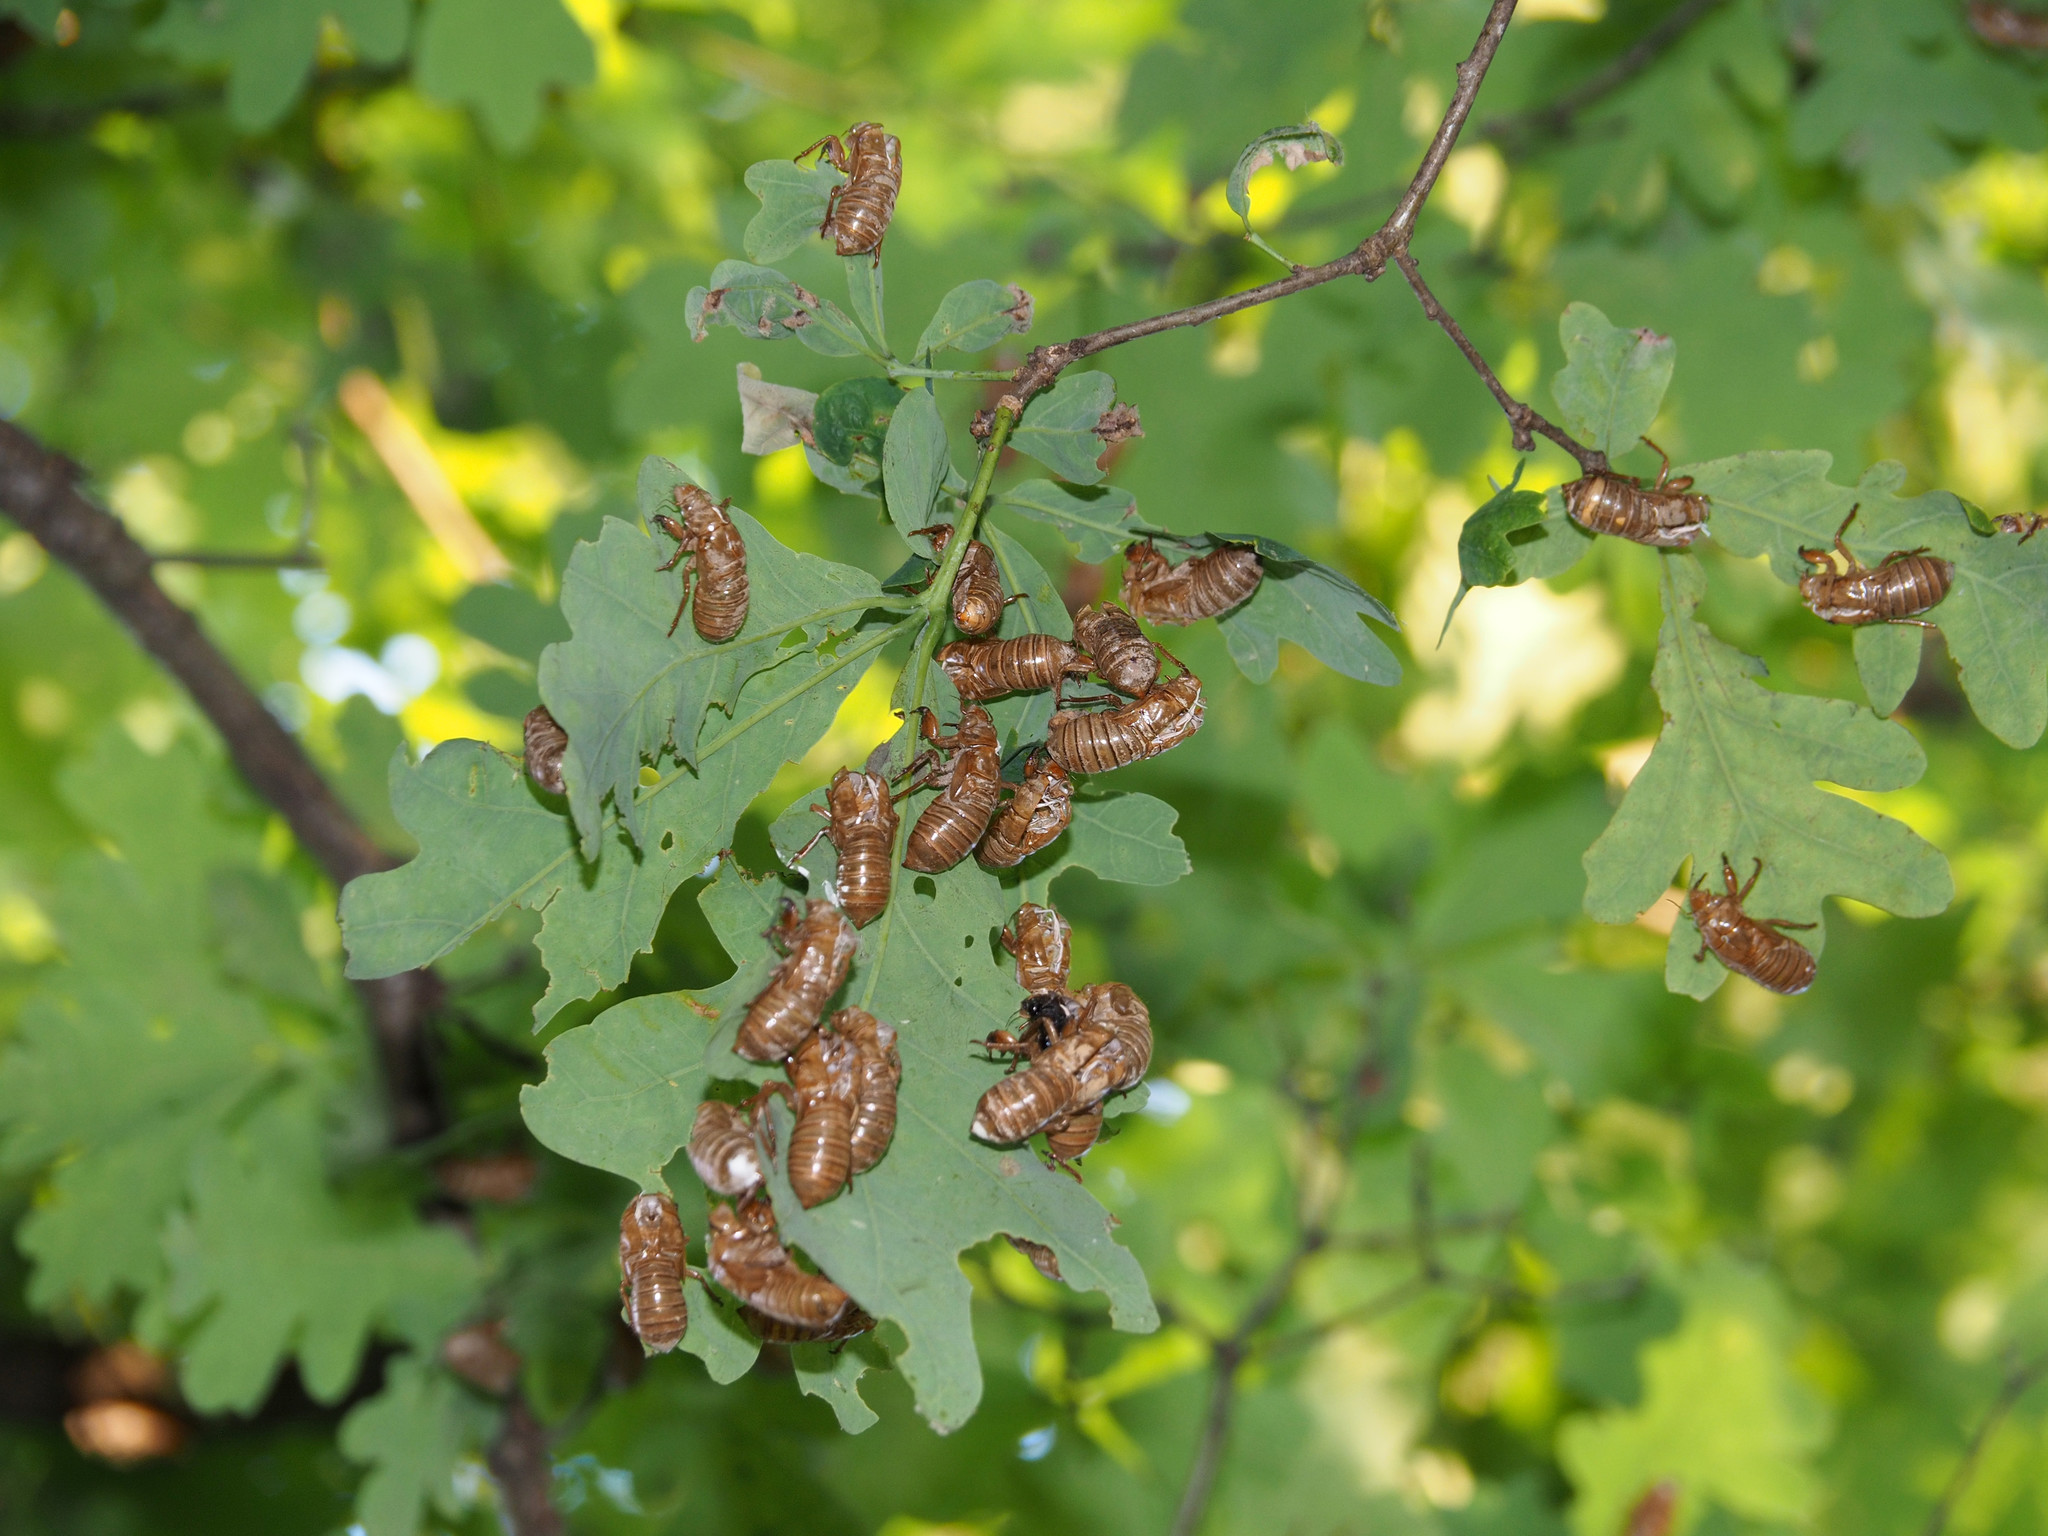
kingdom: Animalia
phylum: Arthropoda
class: Insecta
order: Hemiptera
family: Cicadidae
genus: Magicicada
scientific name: Magicicada
